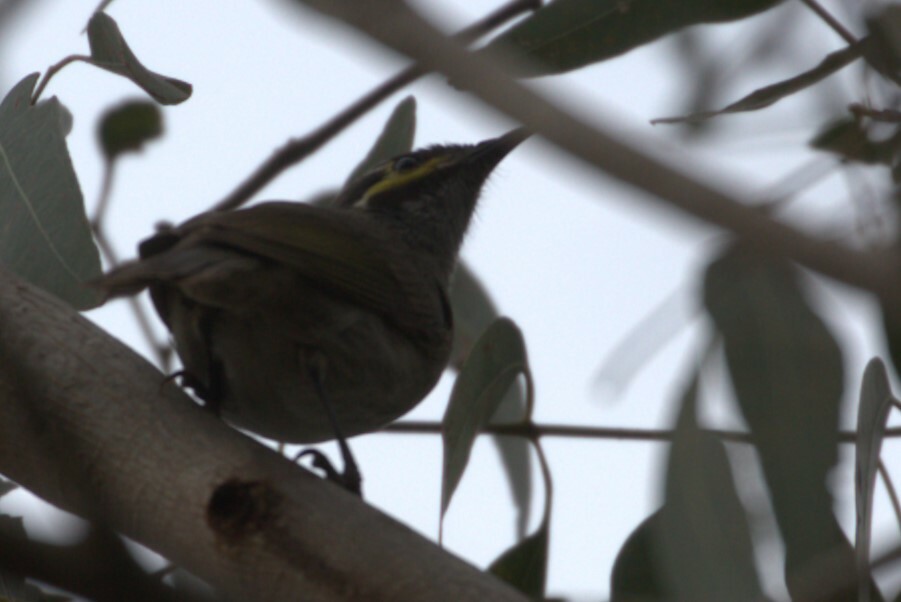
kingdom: Animalia
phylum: Chordata
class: Aves
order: Passeriformes
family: Meliphagidae
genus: Caligavis
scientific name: Caligavis chrysops
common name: Yellow-faced honeyeater
